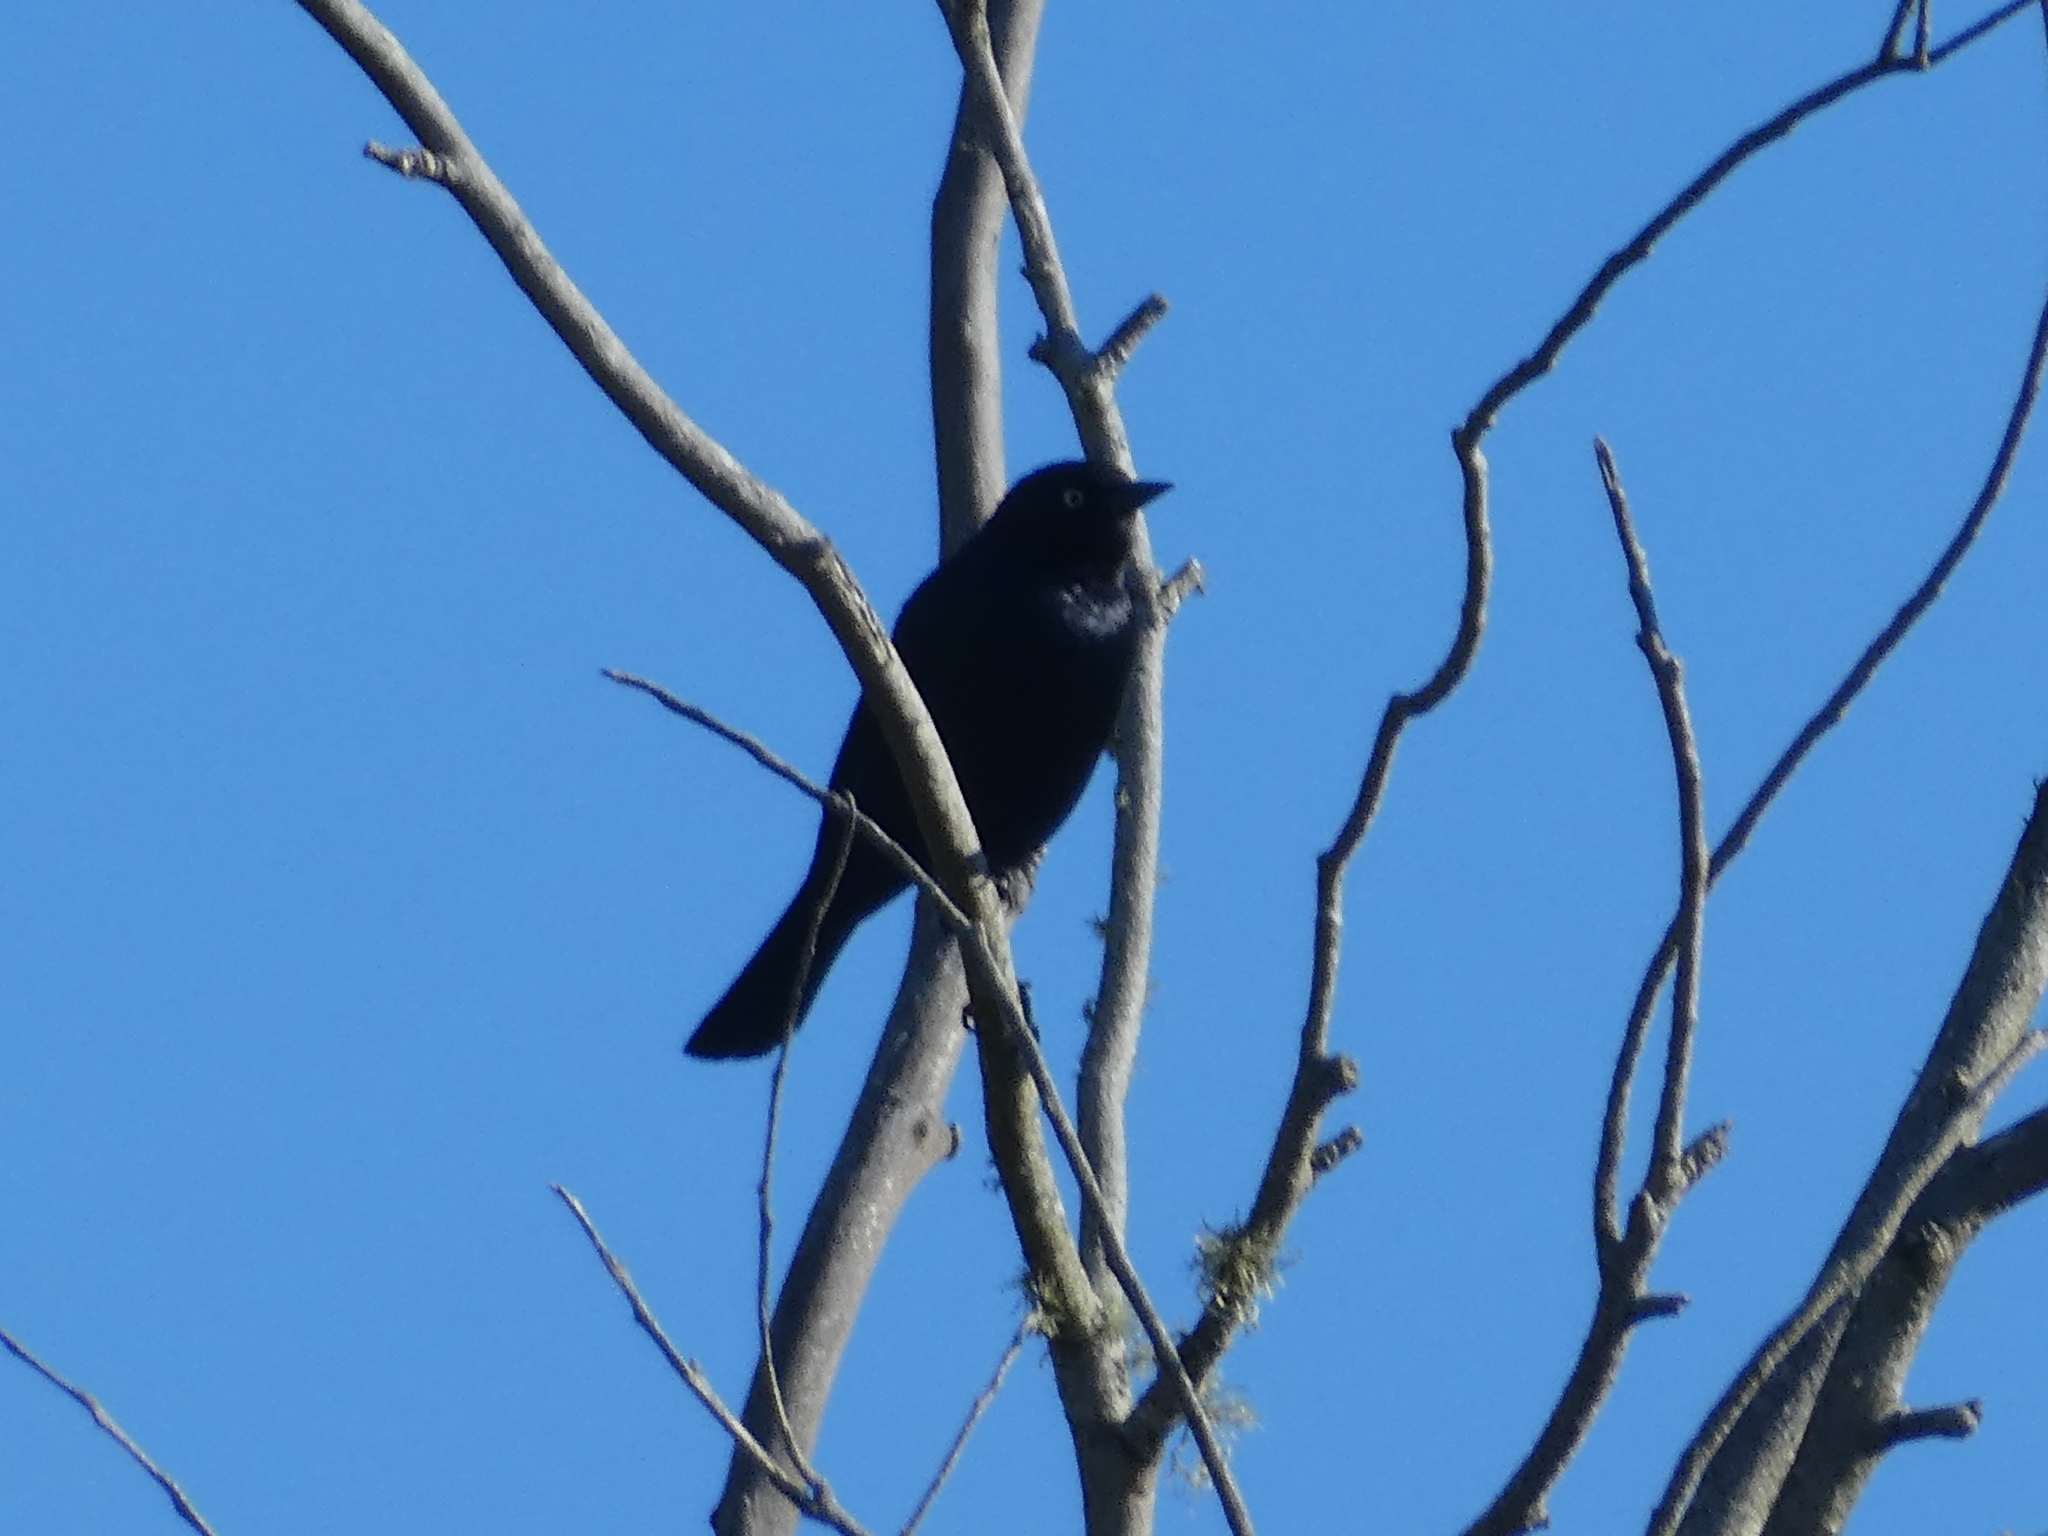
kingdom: Animalia
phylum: Chordata
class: Aves
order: Passeriformes
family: Icteridae
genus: Euphagus
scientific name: Euphagus cyanocephalus
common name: Brewer's blackbird
